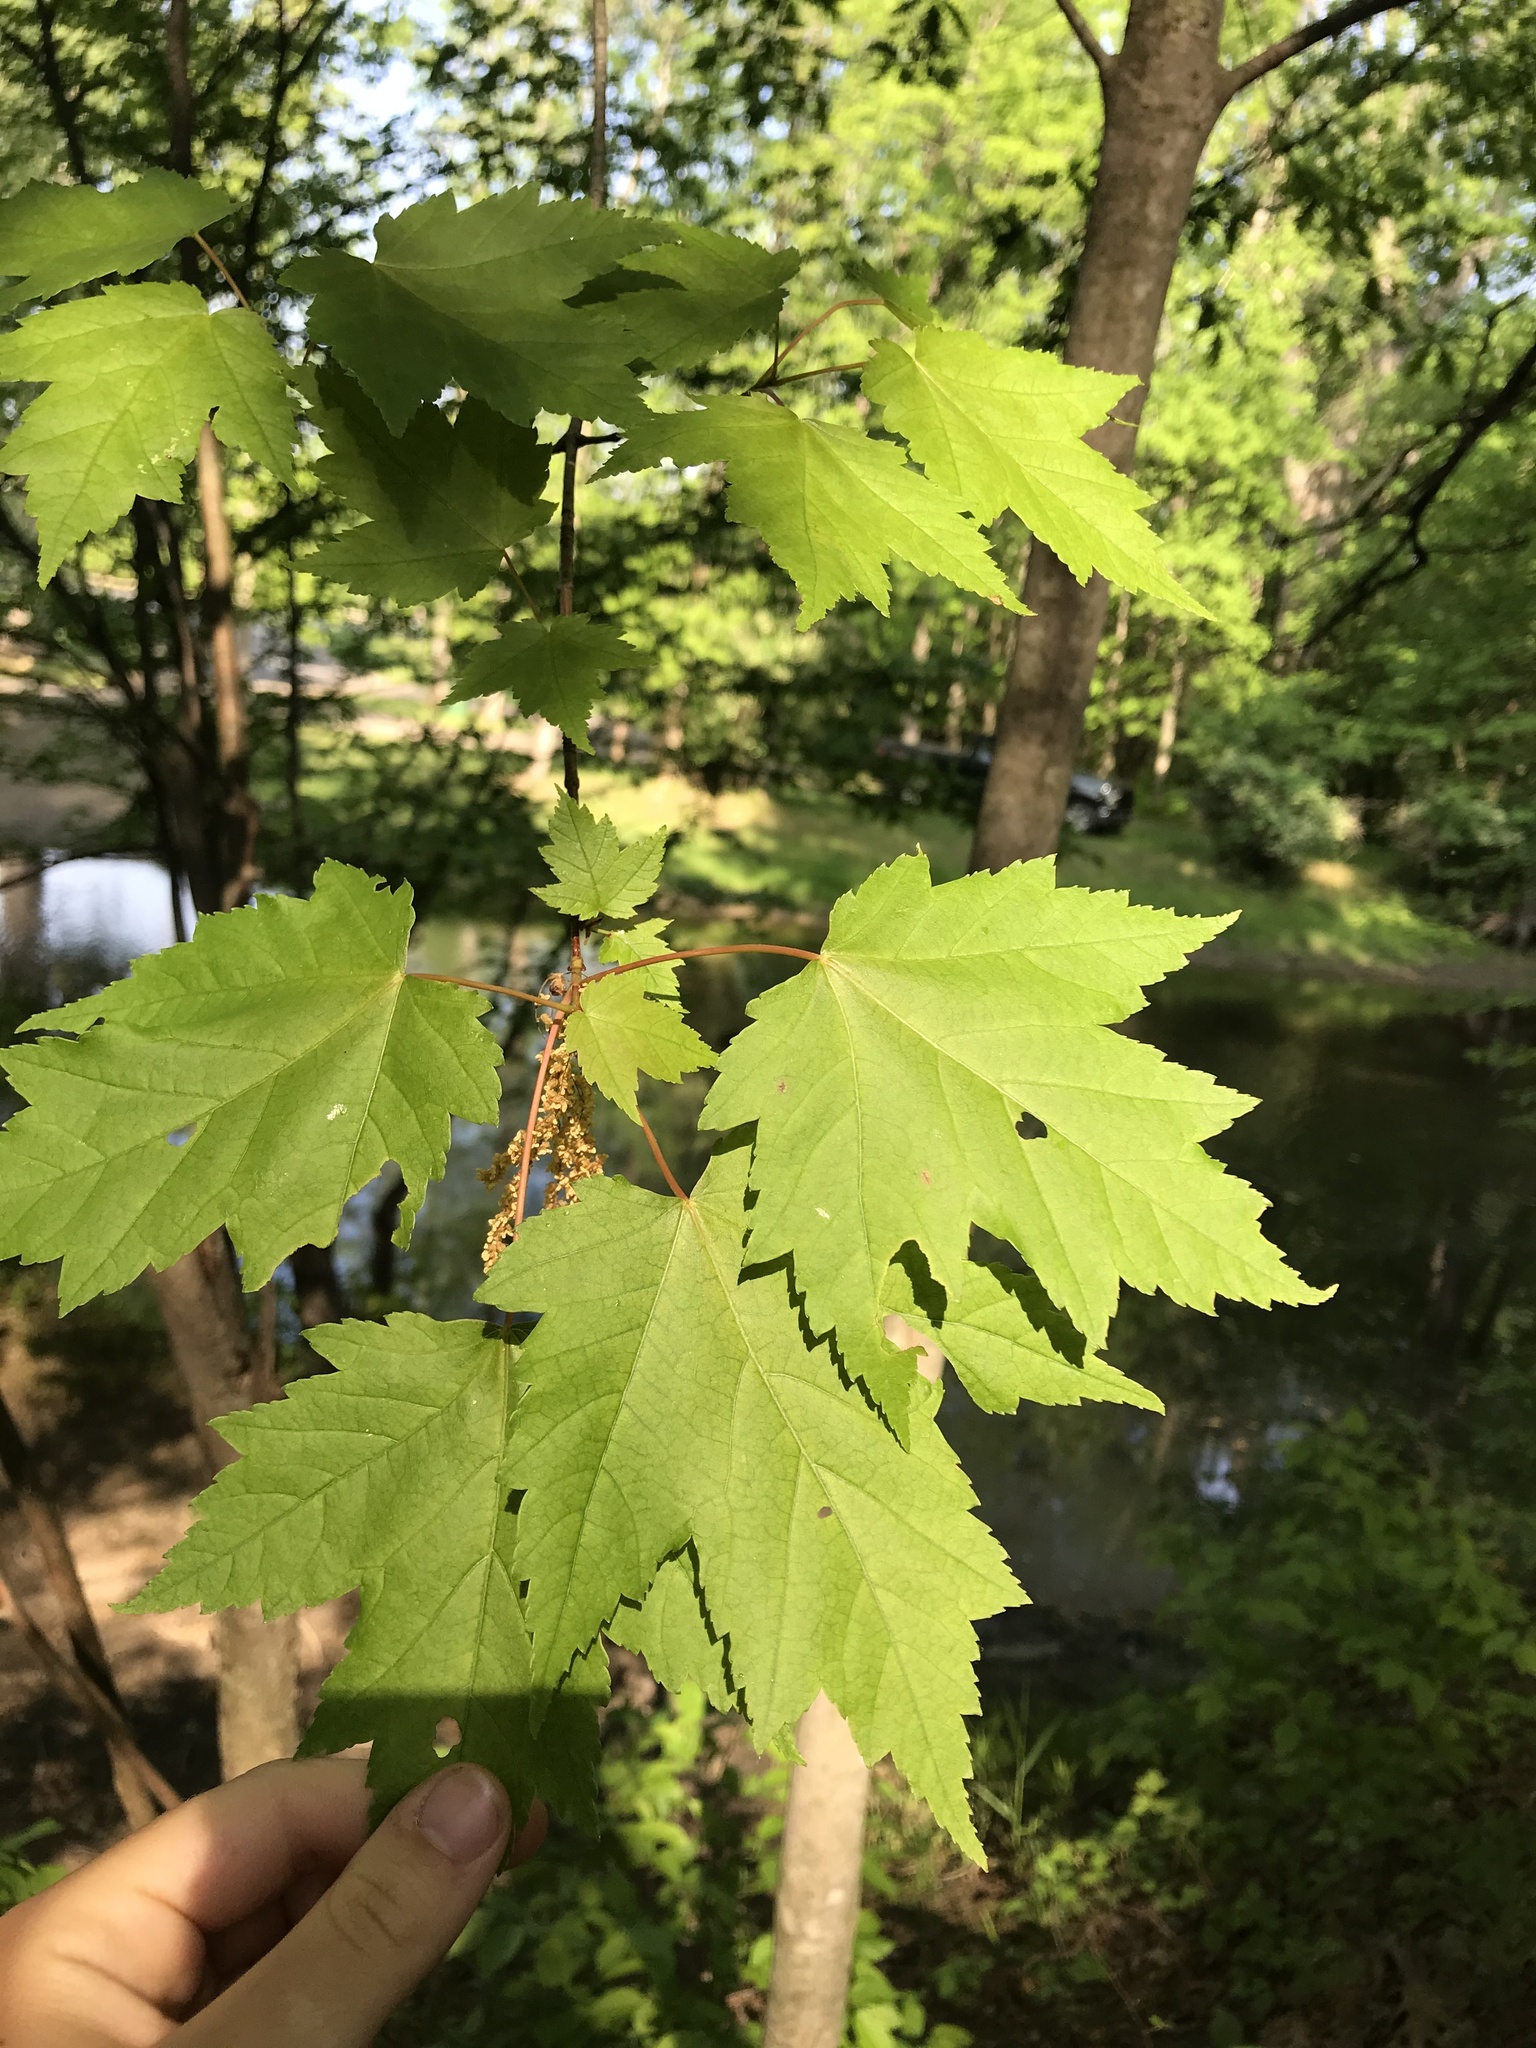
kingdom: Plantae
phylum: Tracheophyta
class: Magnoliopsida
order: Sapindales
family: Sapindaceae
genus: Acer
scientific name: Acer rubrum
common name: Red maple
